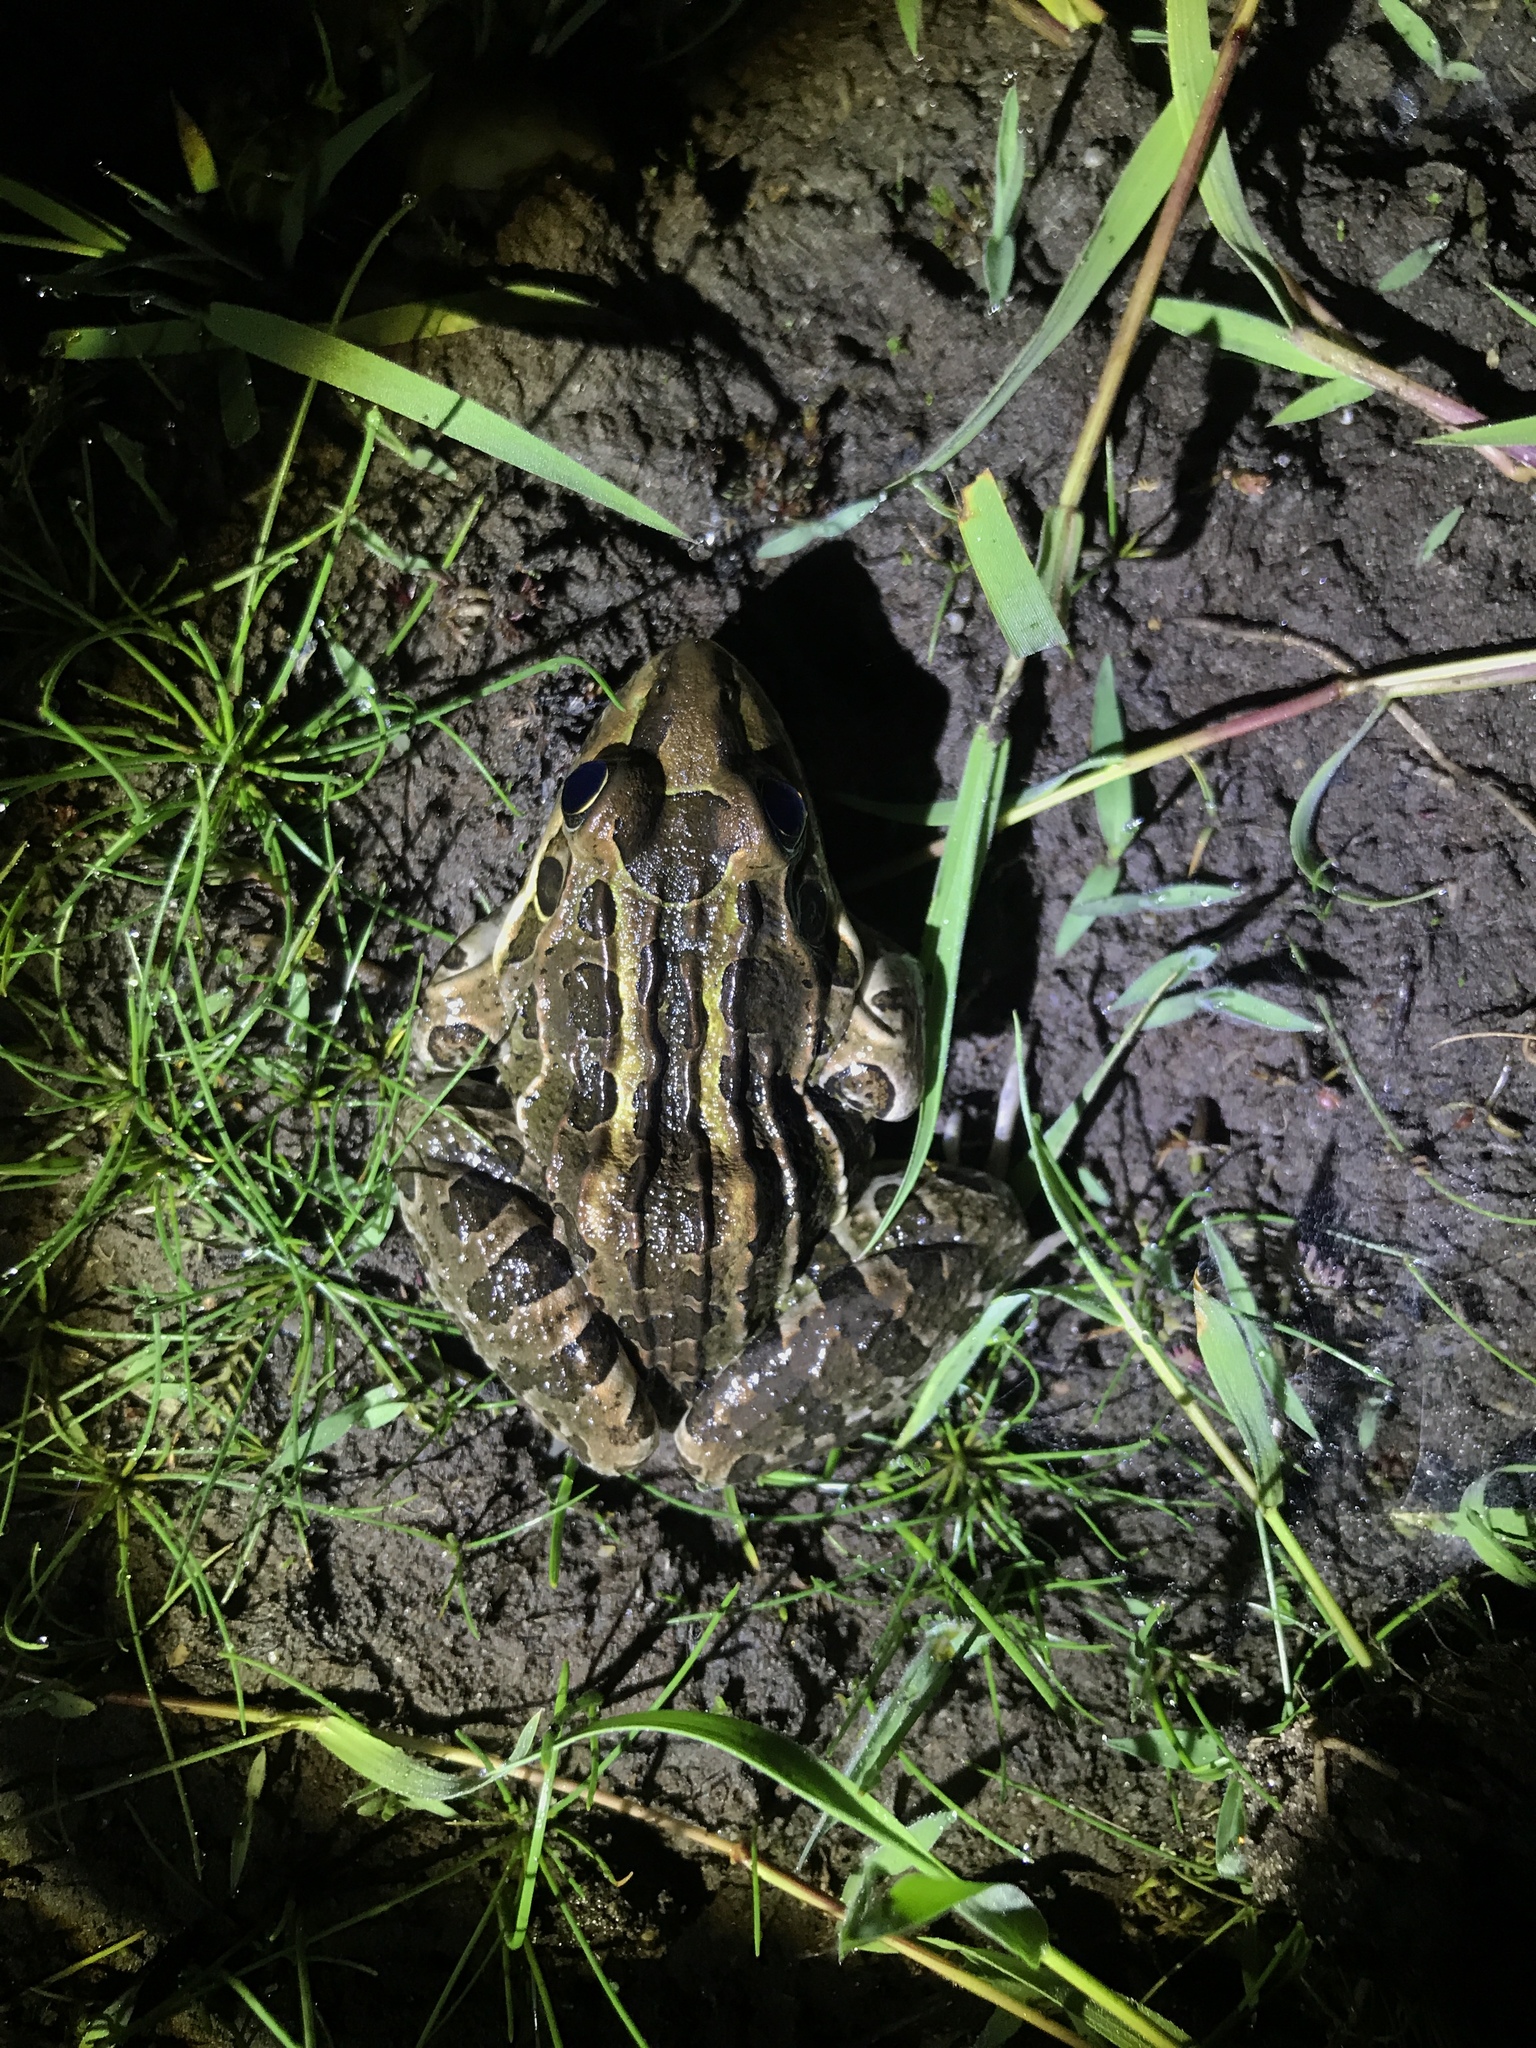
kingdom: Animalia
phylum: Chordata
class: Amphibia
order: Anura
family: Leptodactylidae
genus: Leptodactylus
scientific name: Leptodactylus luctator
